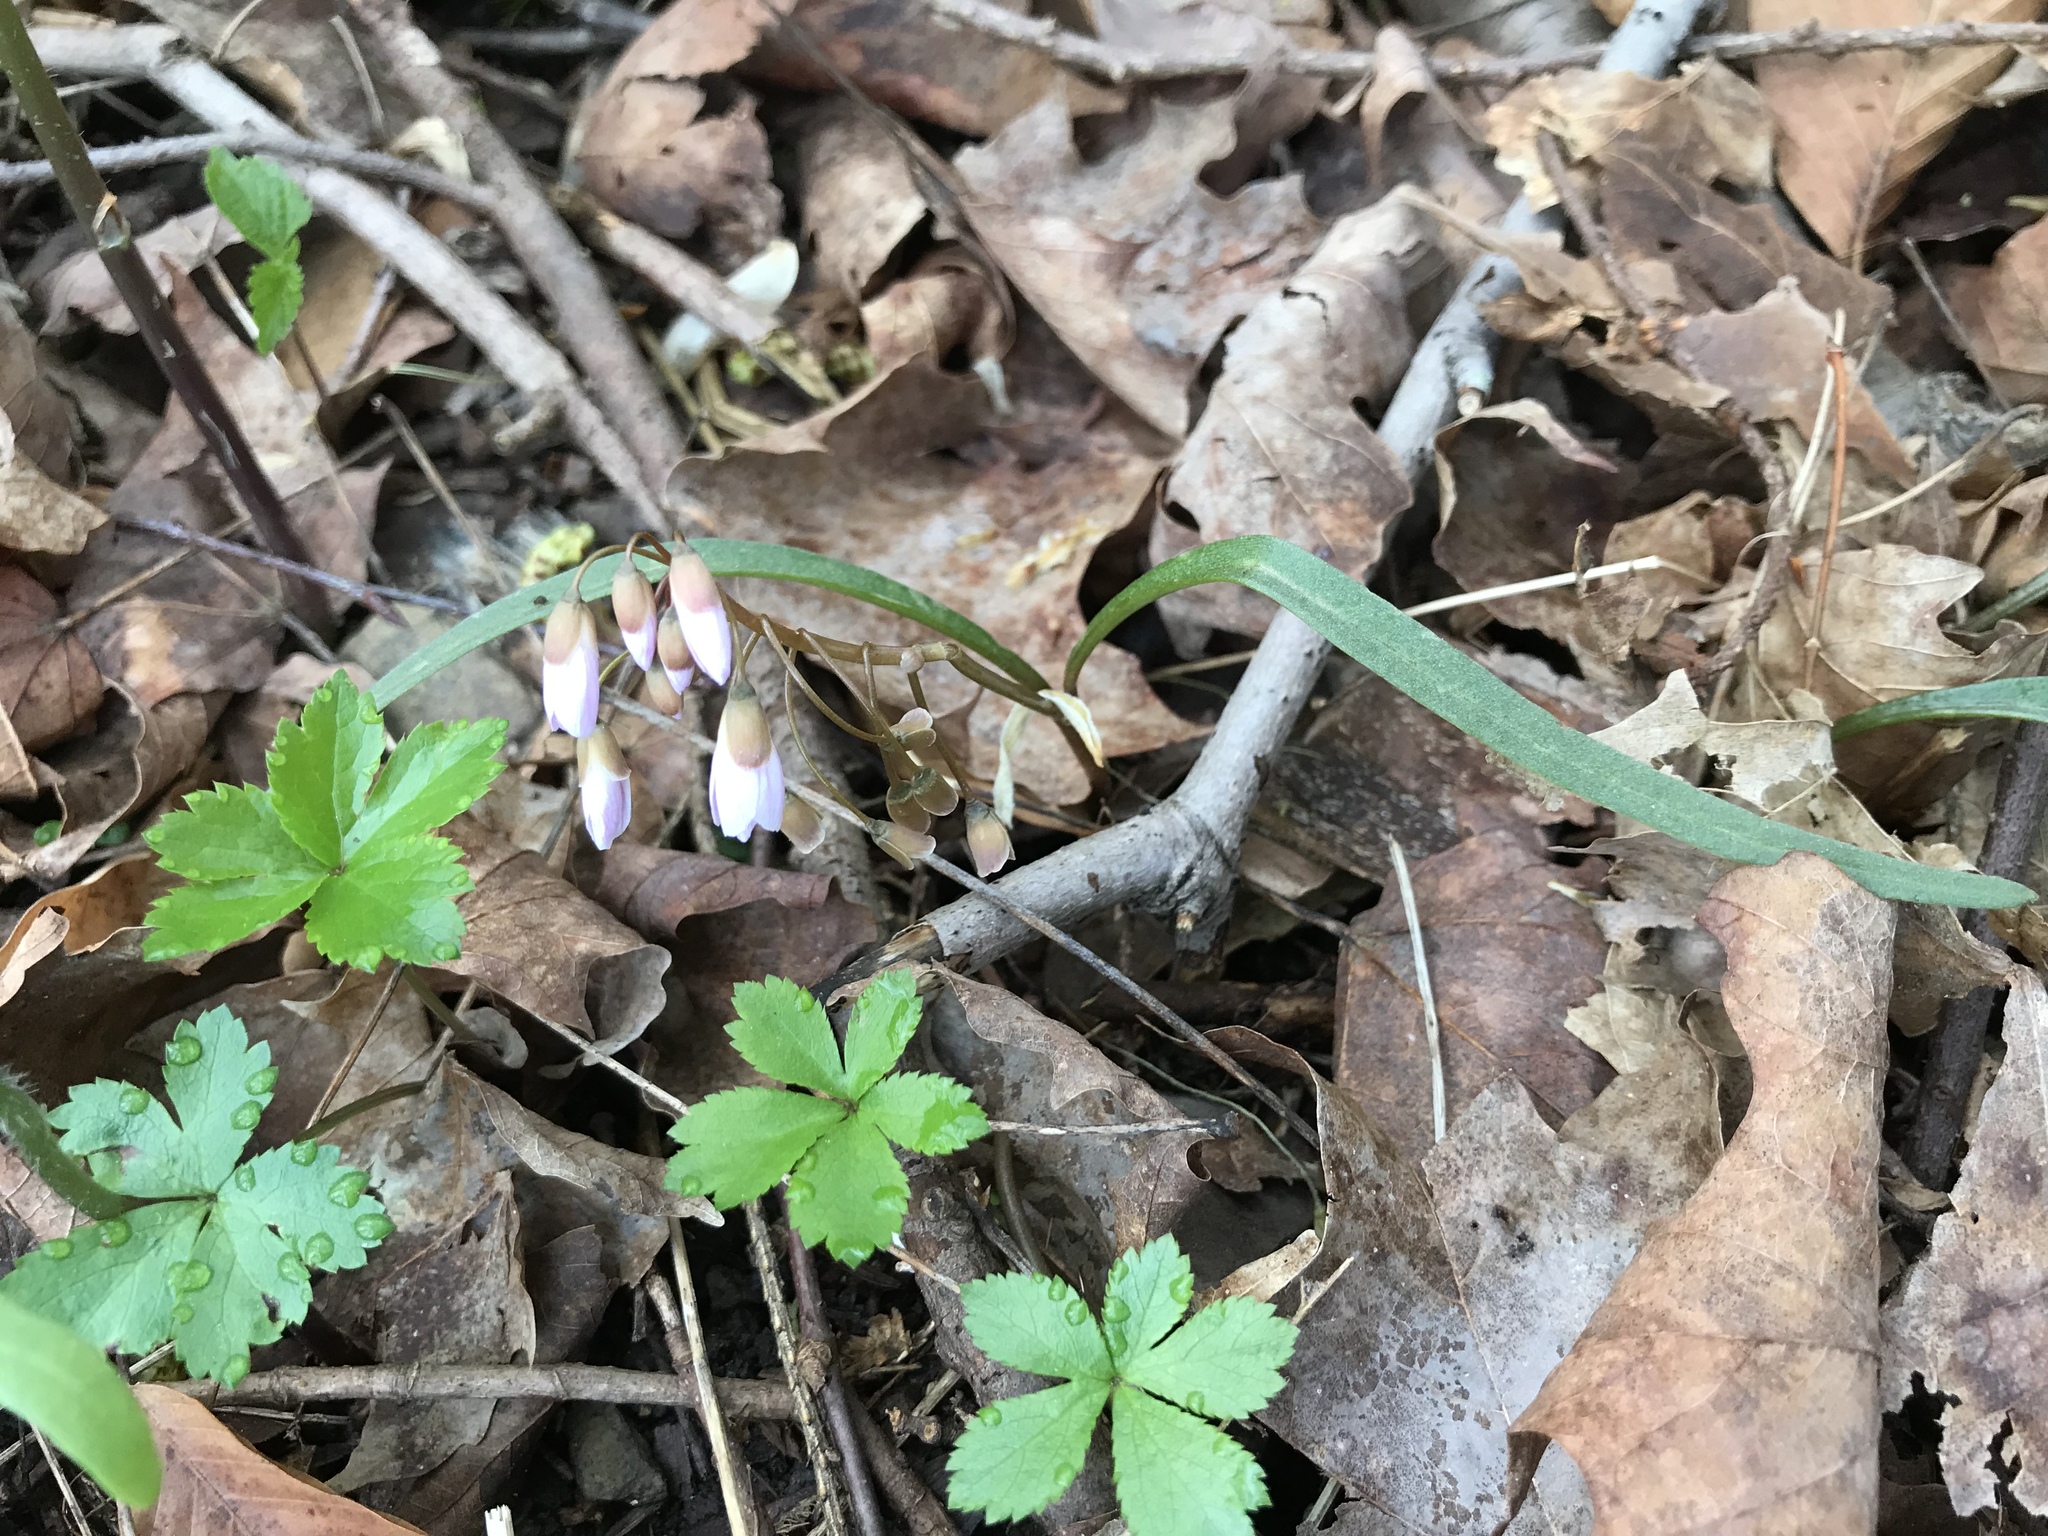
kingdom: Plantae
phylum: Tracheophyta
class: Magnoliopsida
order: Caryophyllales
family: Montiaceae
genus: Claytonia
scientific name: Claytonia virginica
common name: Virginia springbeauty
